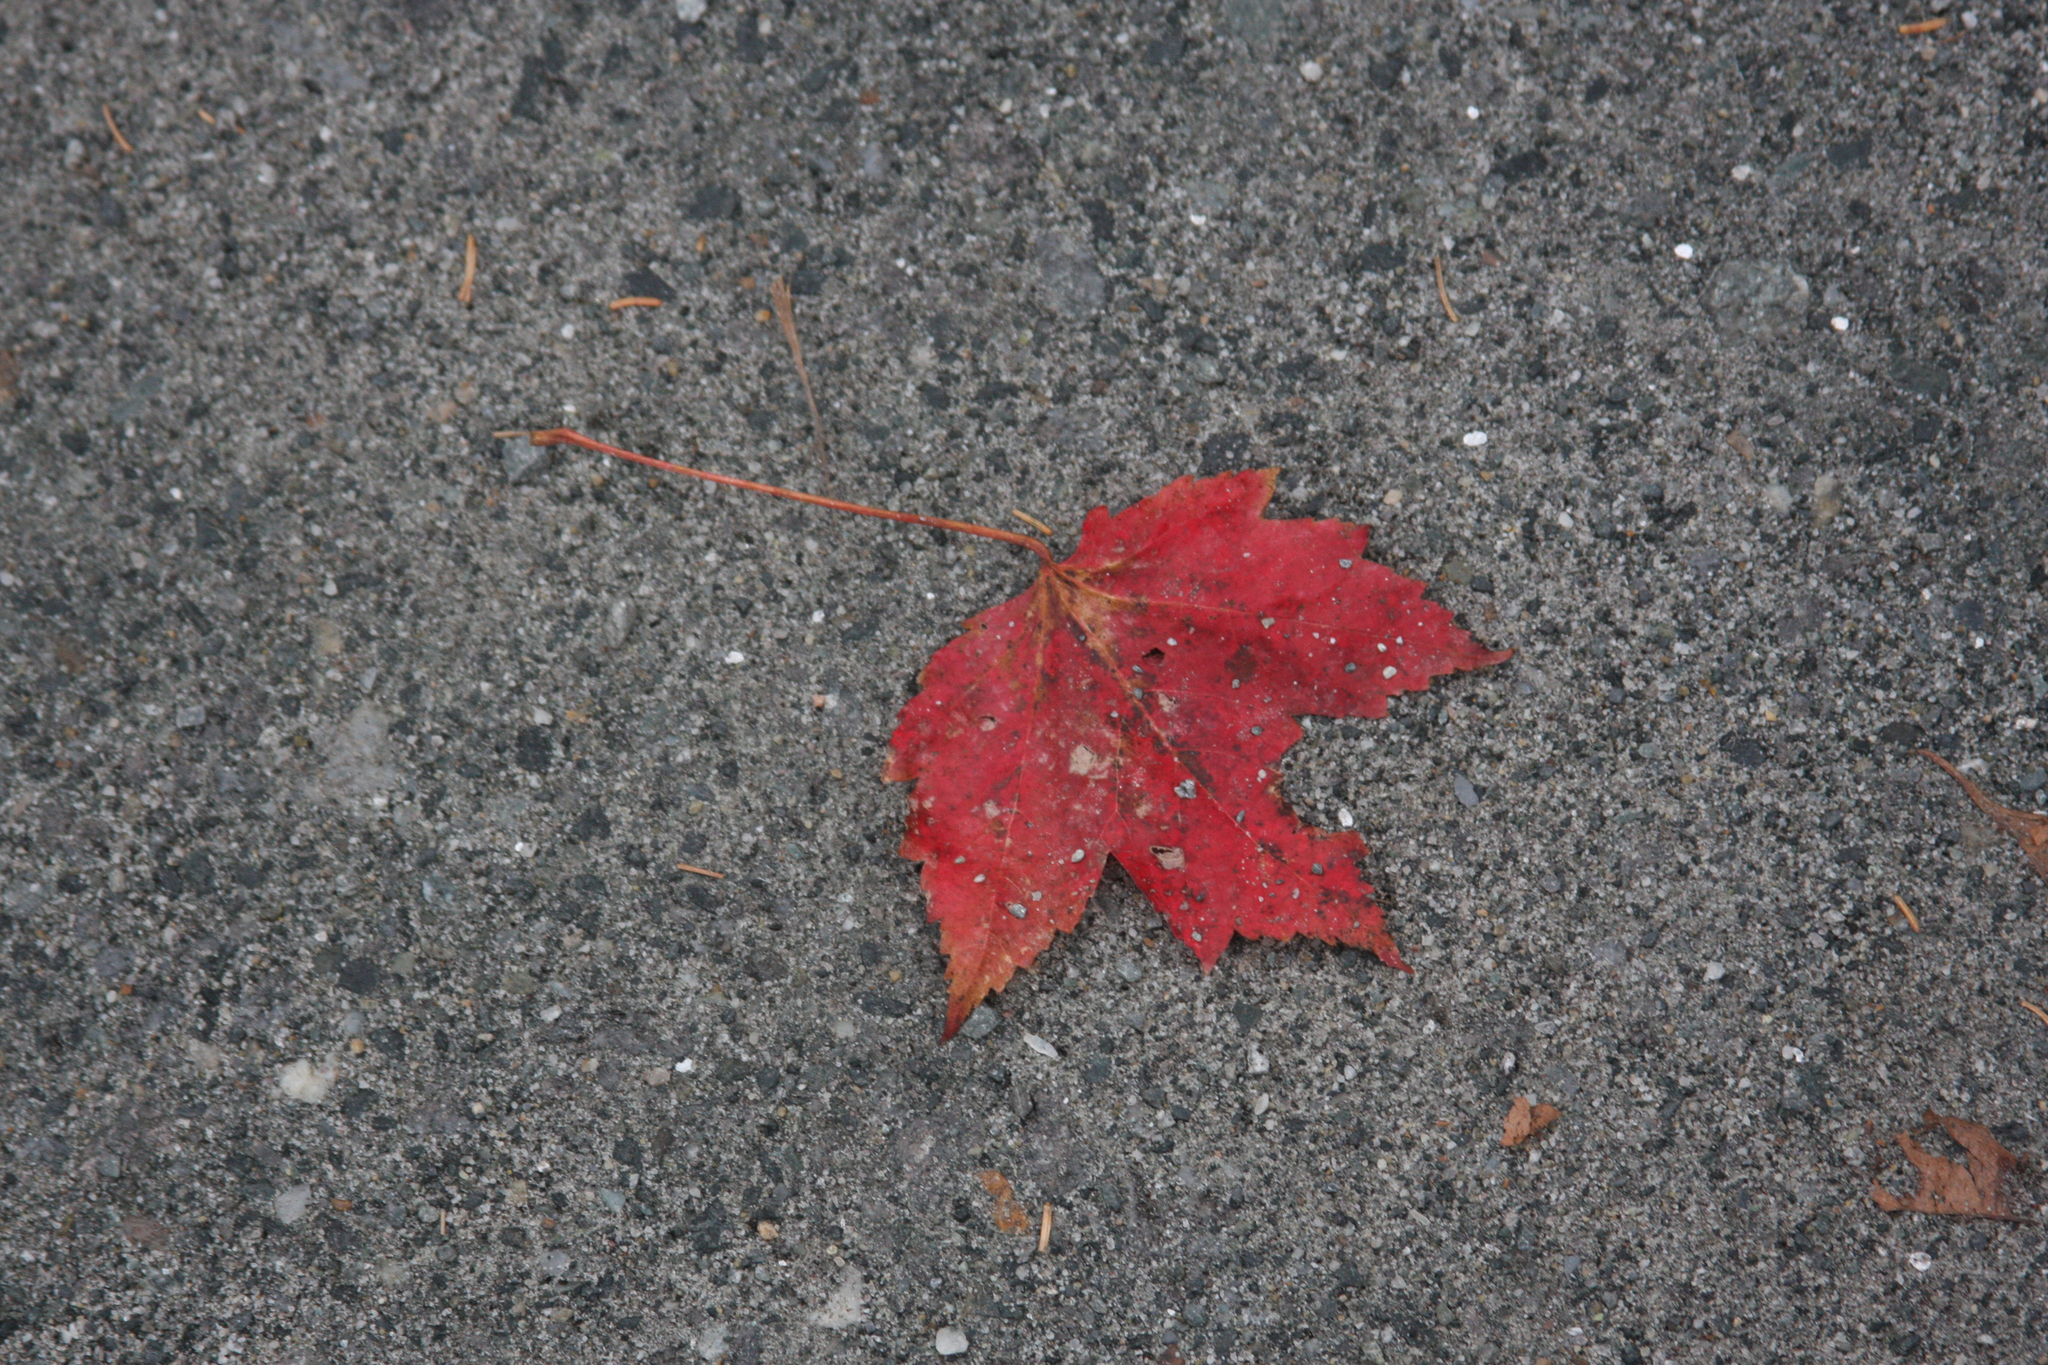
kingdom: Plantae
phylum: Tracheophyta
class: Magnoliopsida
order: Sapindales
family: Sapindaceae
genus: Acer
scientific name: Acer rubrum
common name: Red maple
